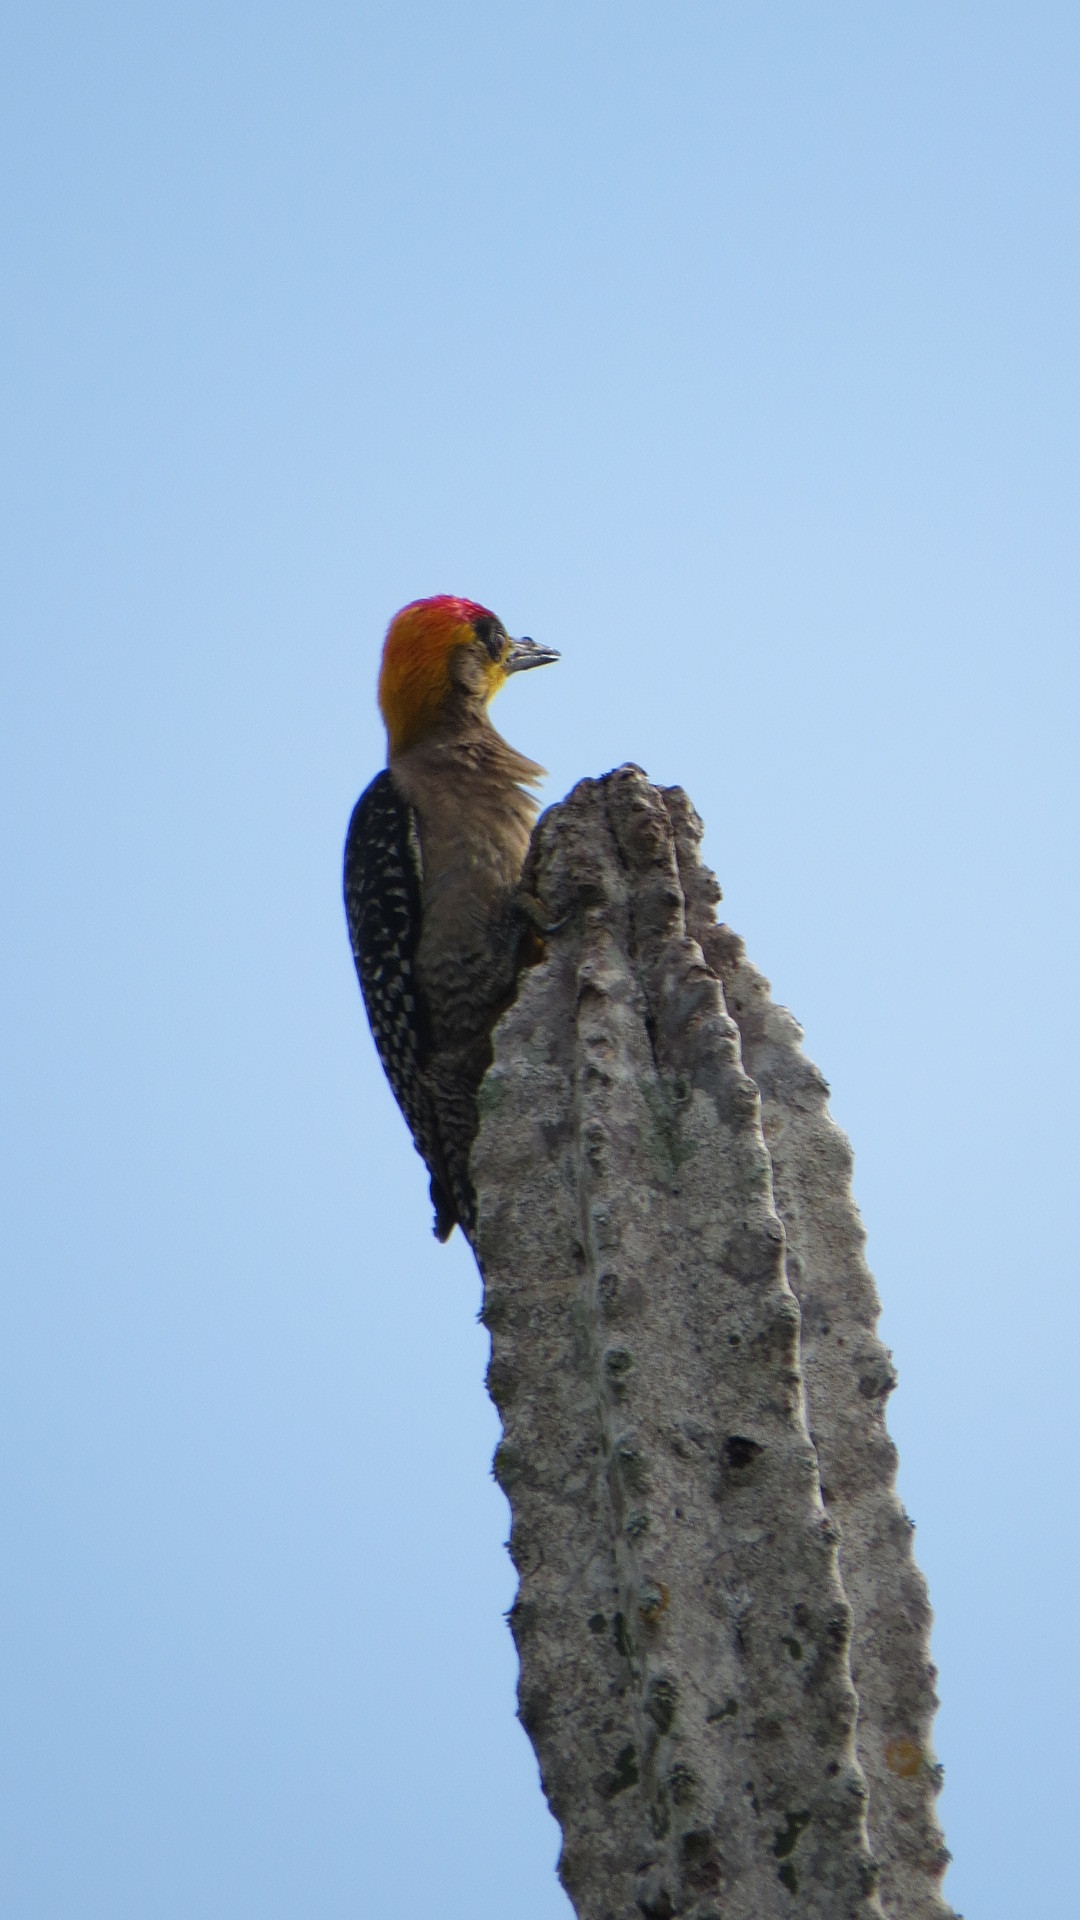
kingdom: Animalia
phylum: Chordata
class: Aves
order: Piciformes
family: Picidae
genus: Melanerpes
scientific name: Melanerpes chrysogenys
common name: Golden-cheeked woodpecker
